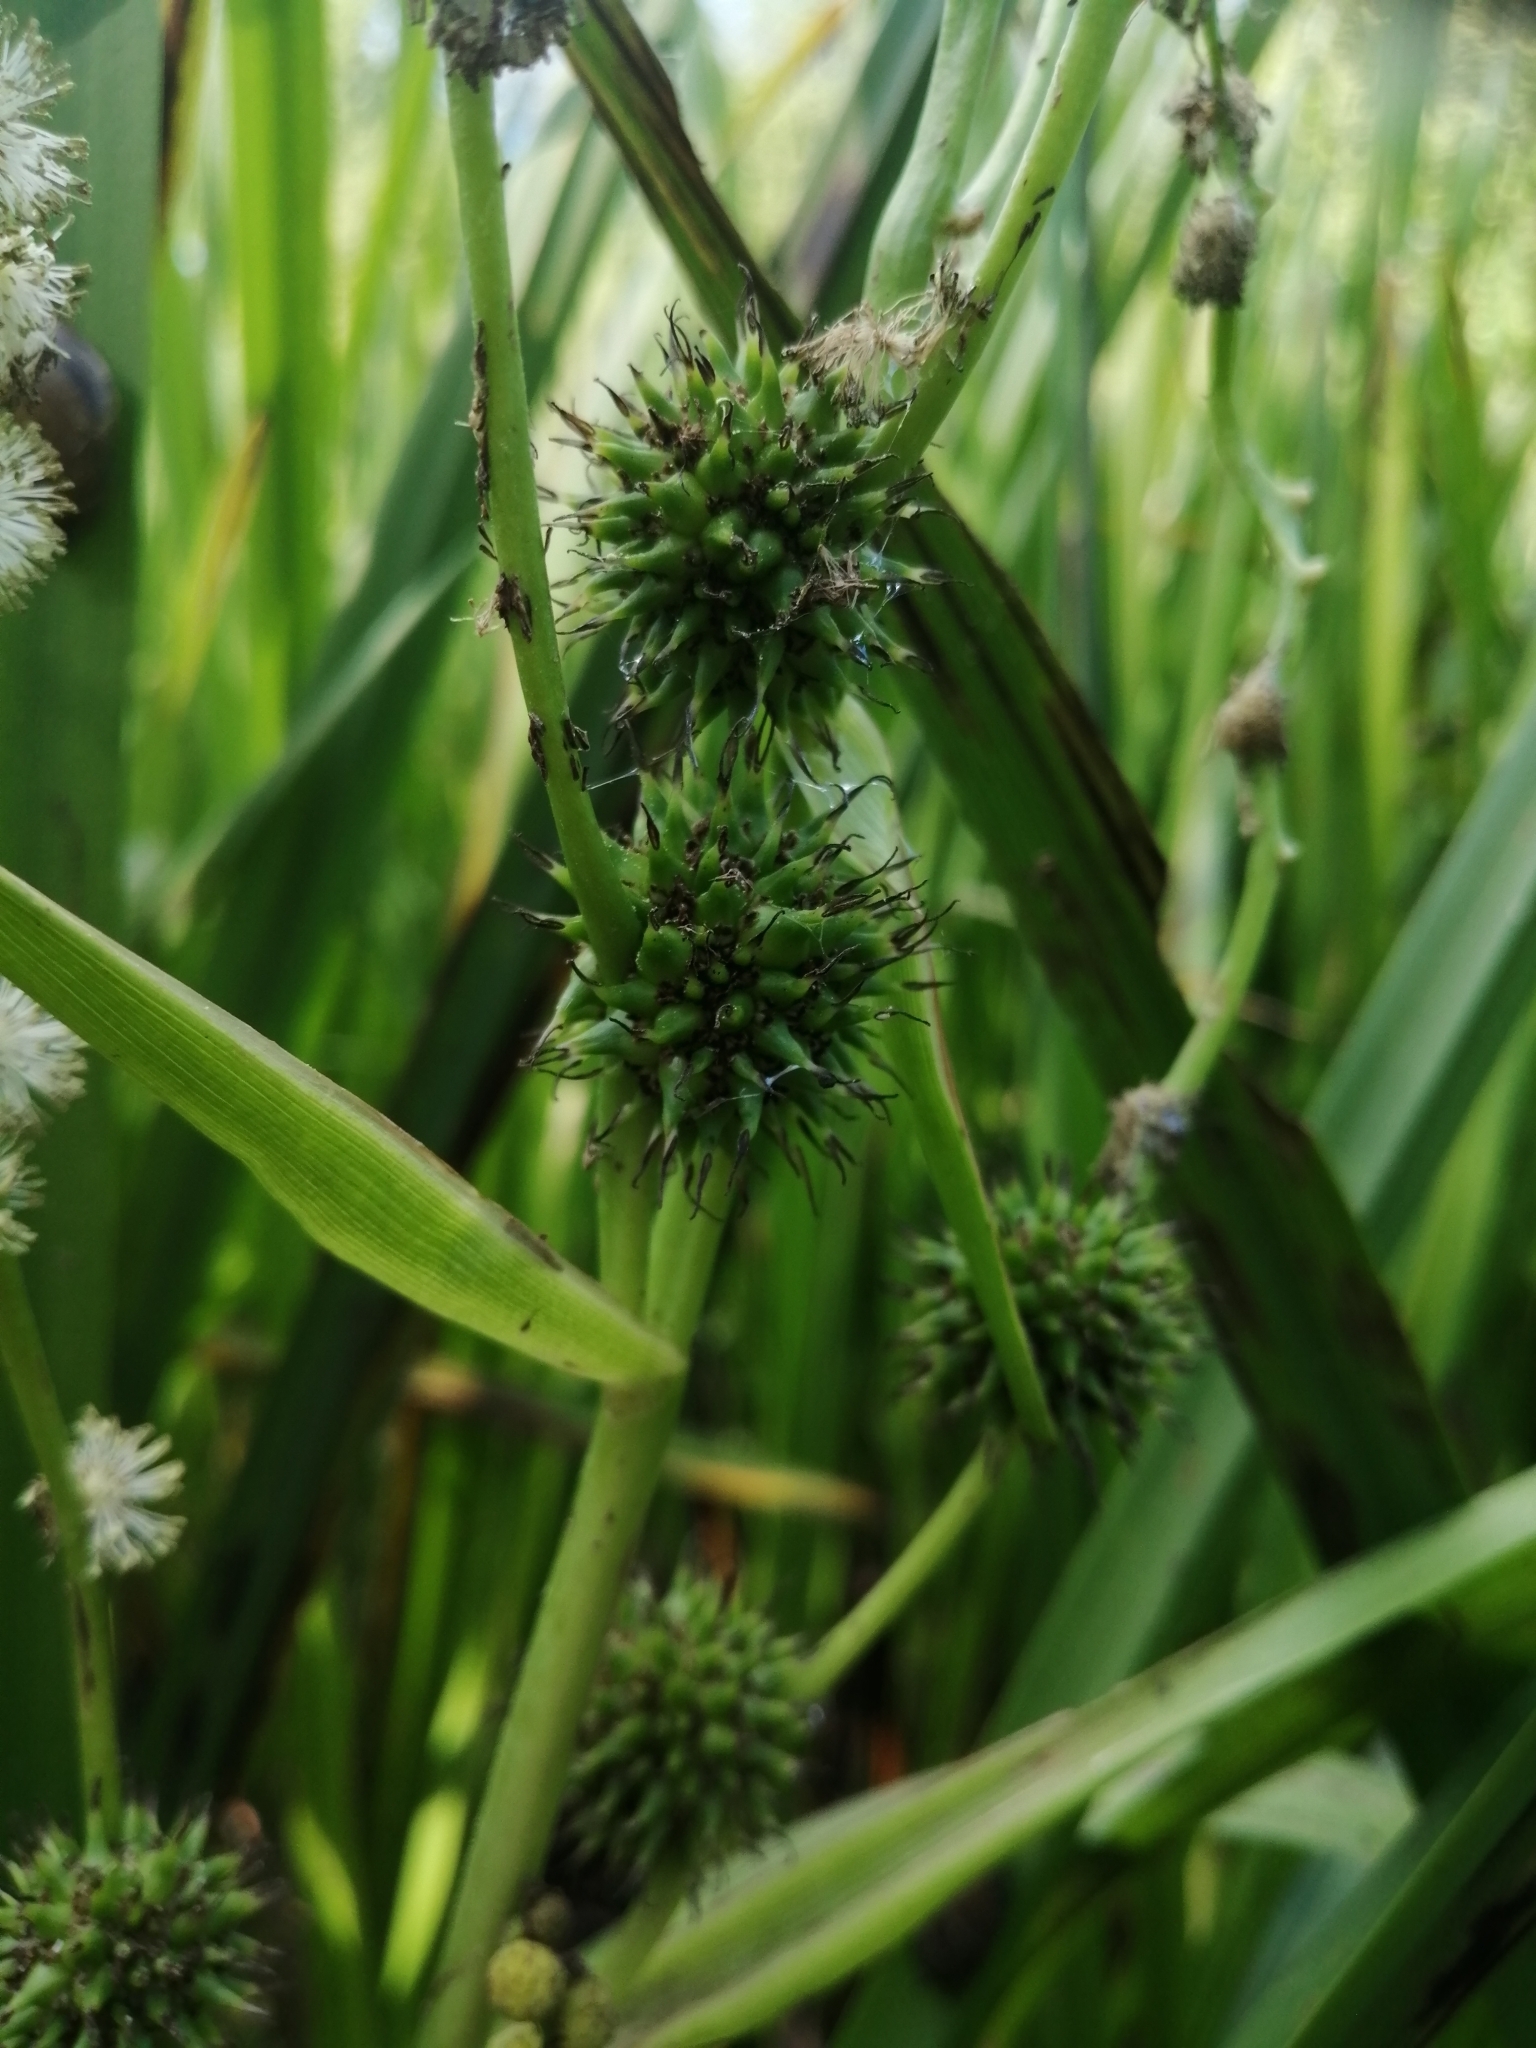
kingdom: Plantae
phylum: Tracheophyta
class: Liliopsida
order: Poales
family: Typhaceae
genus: Sparganium
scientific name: Sparganium erectum
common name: Branched bur-reed
